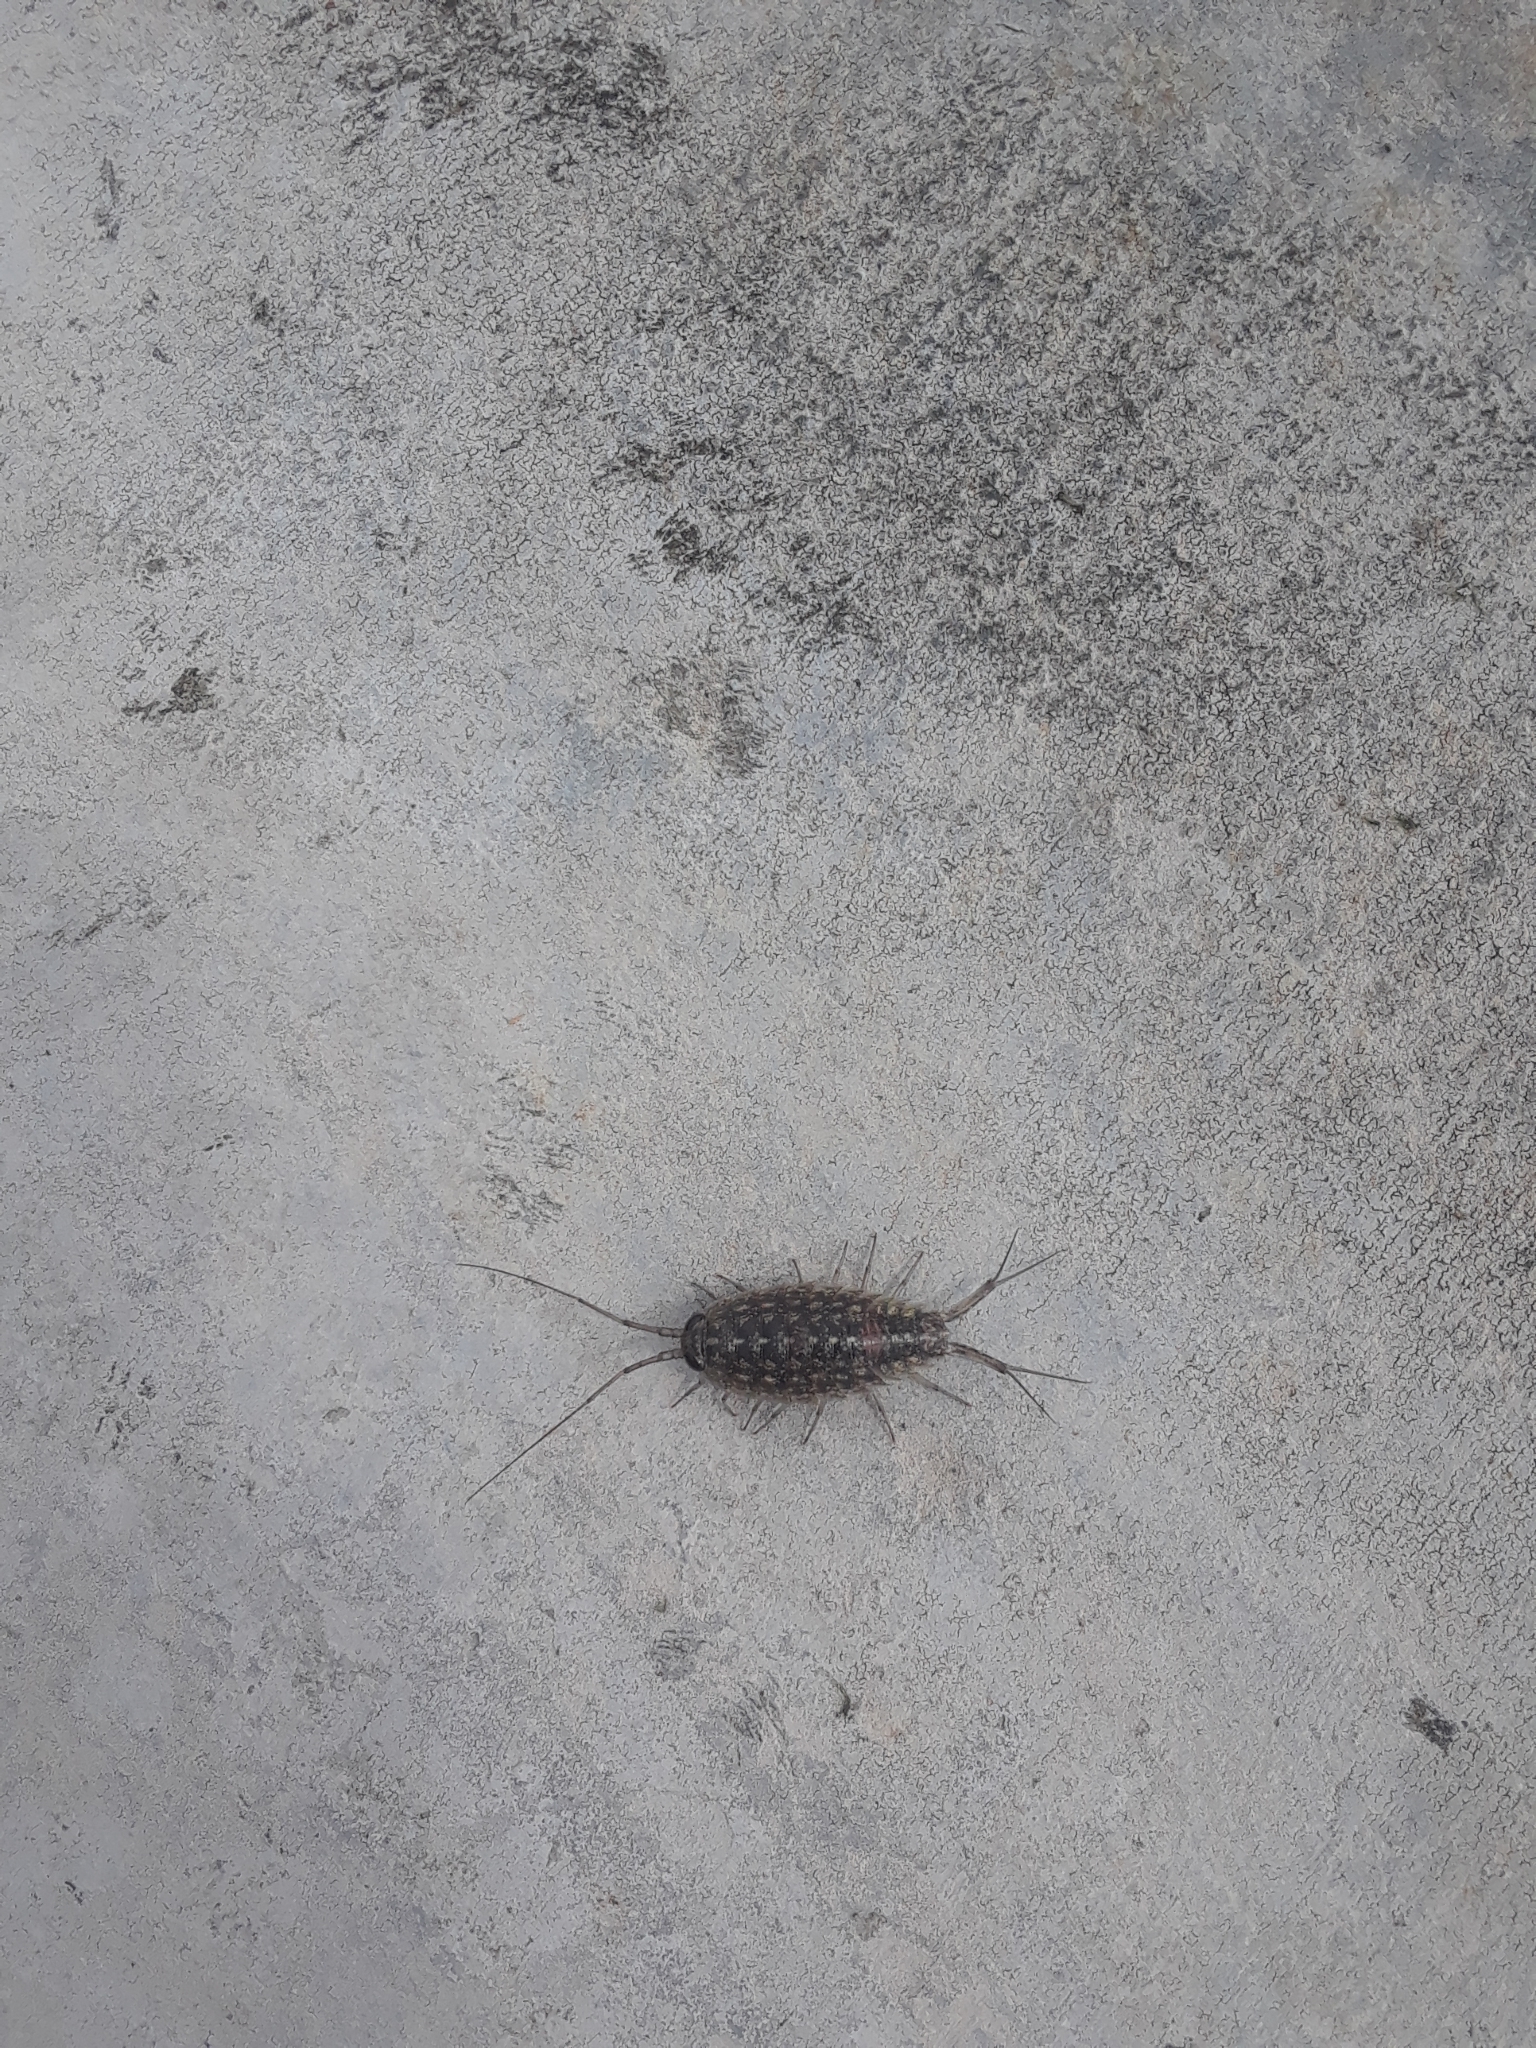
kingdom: Animalia
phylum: Arthropoda
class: Malacostraca
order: Isopoda
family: Ligiidae
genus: Ligia
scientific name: Ligia exotica
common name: Wharf roach
